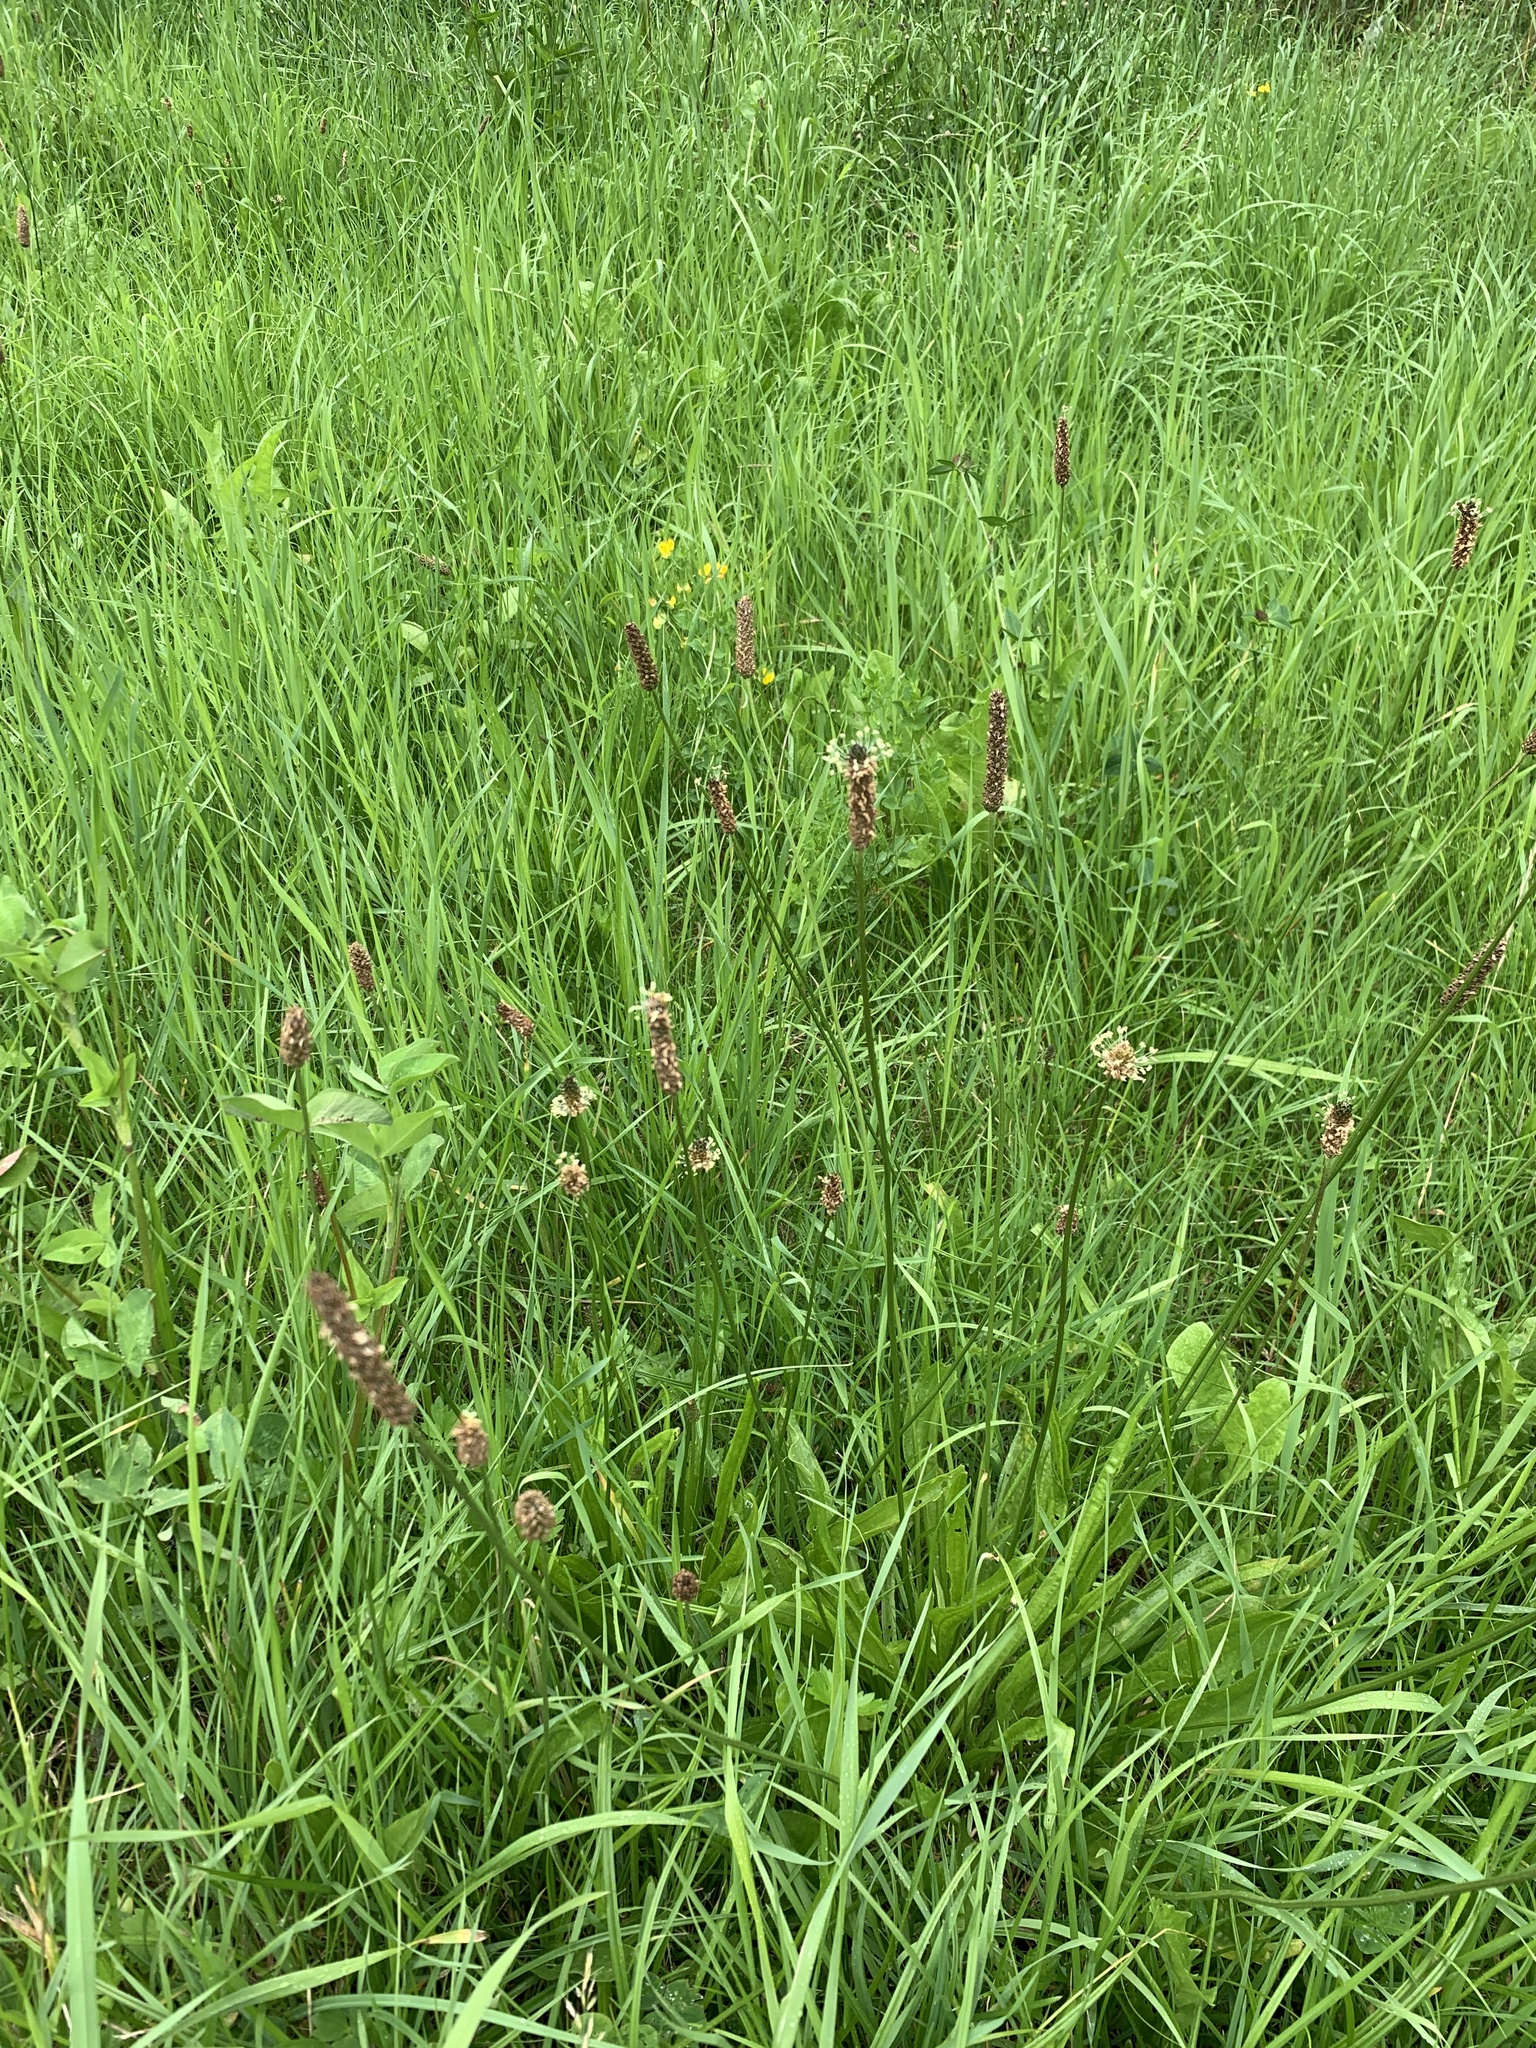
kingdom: Plantae
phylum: Tracheophyta
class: Magnoliopsida
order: Lamiales
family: Plantaginaceae
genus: Plantago
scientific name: Plantago lanceolata
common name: Ribwort plantain
